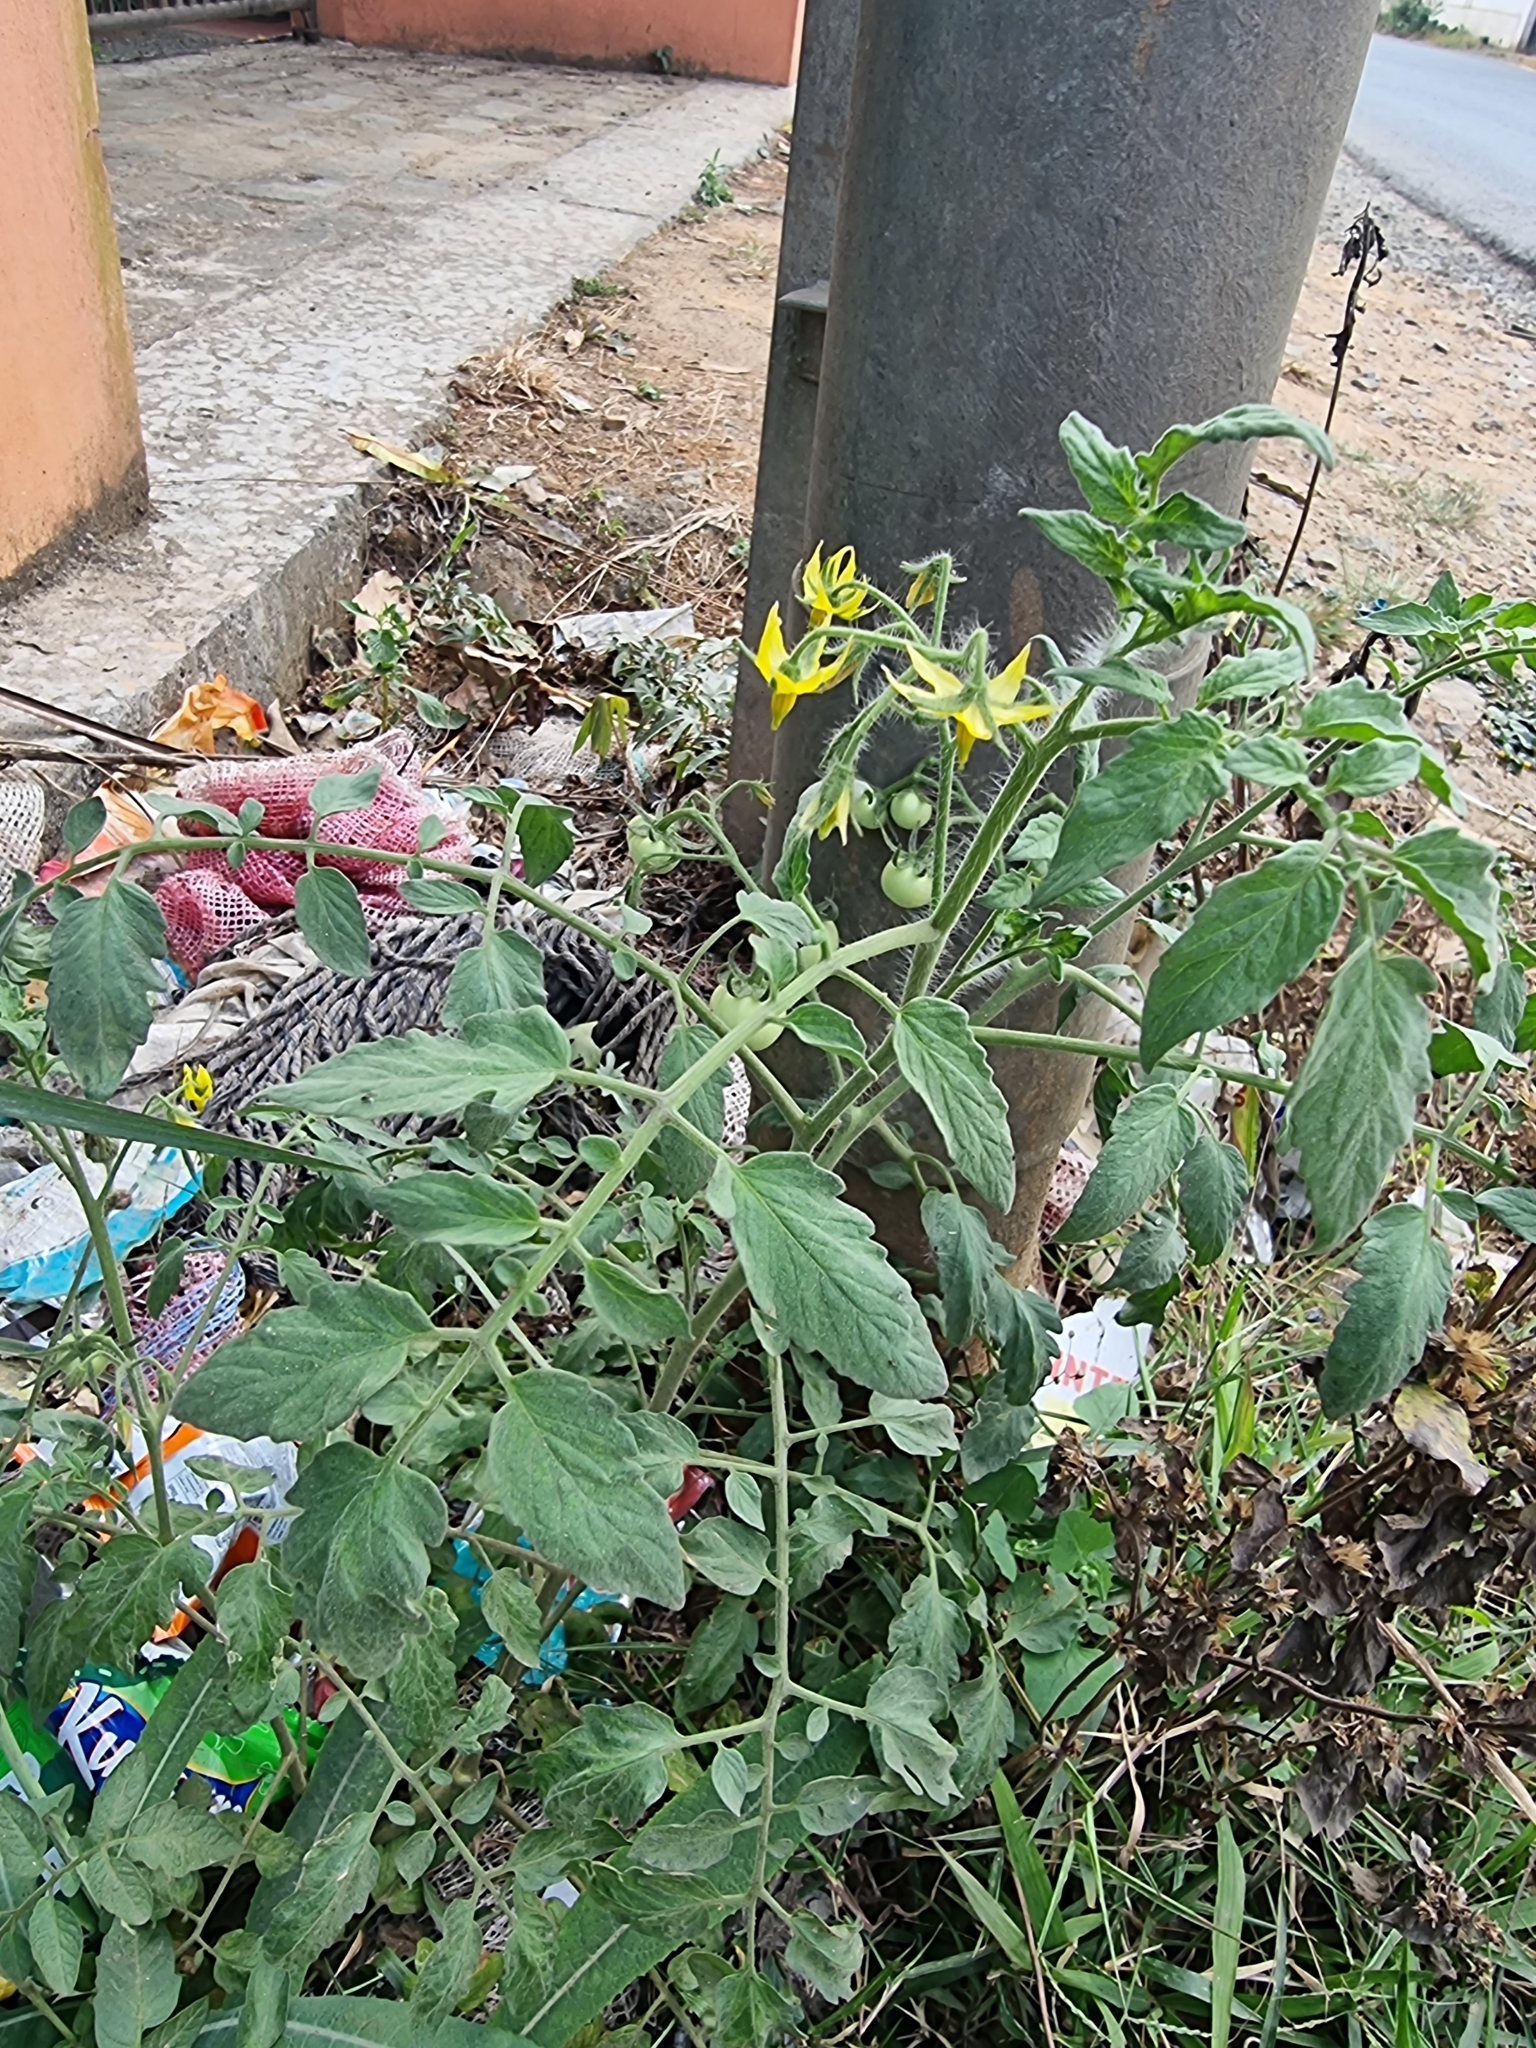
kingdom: Plantae
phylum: Tracheophyta
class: Magnoliopsida
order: Solanales
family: Solanaceae
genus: Solanum
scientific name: Solanum lycopersicum
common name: Garden tomato
